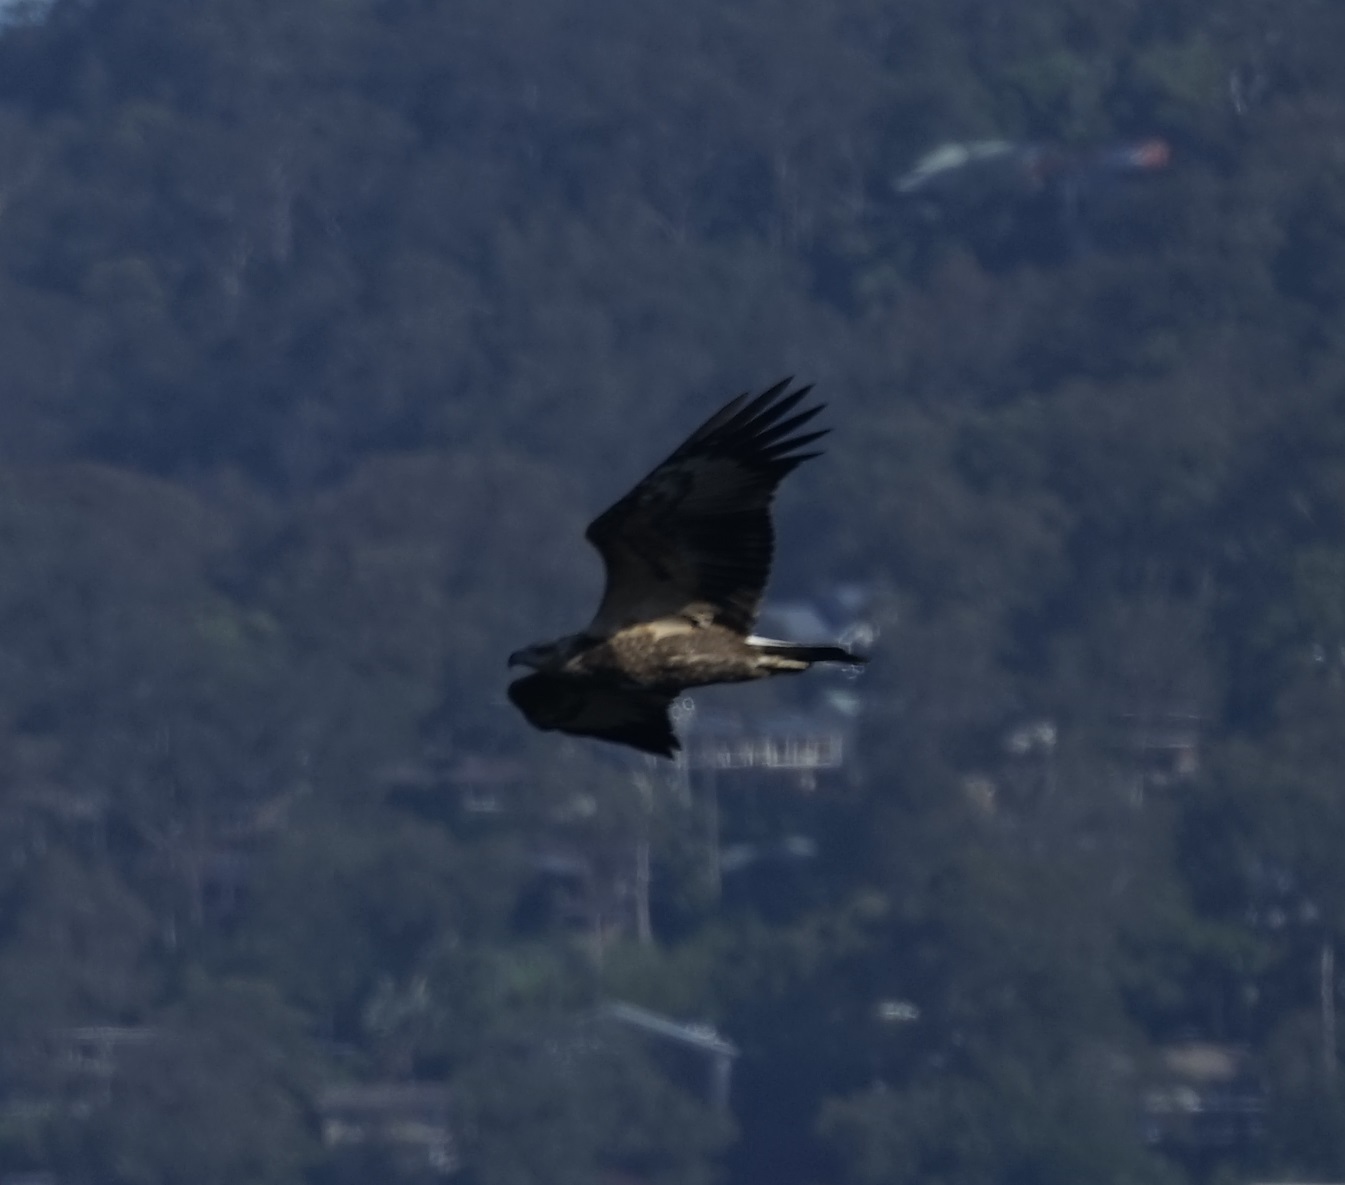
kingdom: Animalia
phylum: Chordata
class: Aves
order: Accipitriformes
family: Accipitridae
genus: Haliaeetus
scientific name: Haliaeetus leucogaster
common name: White-bellied sea eagle
